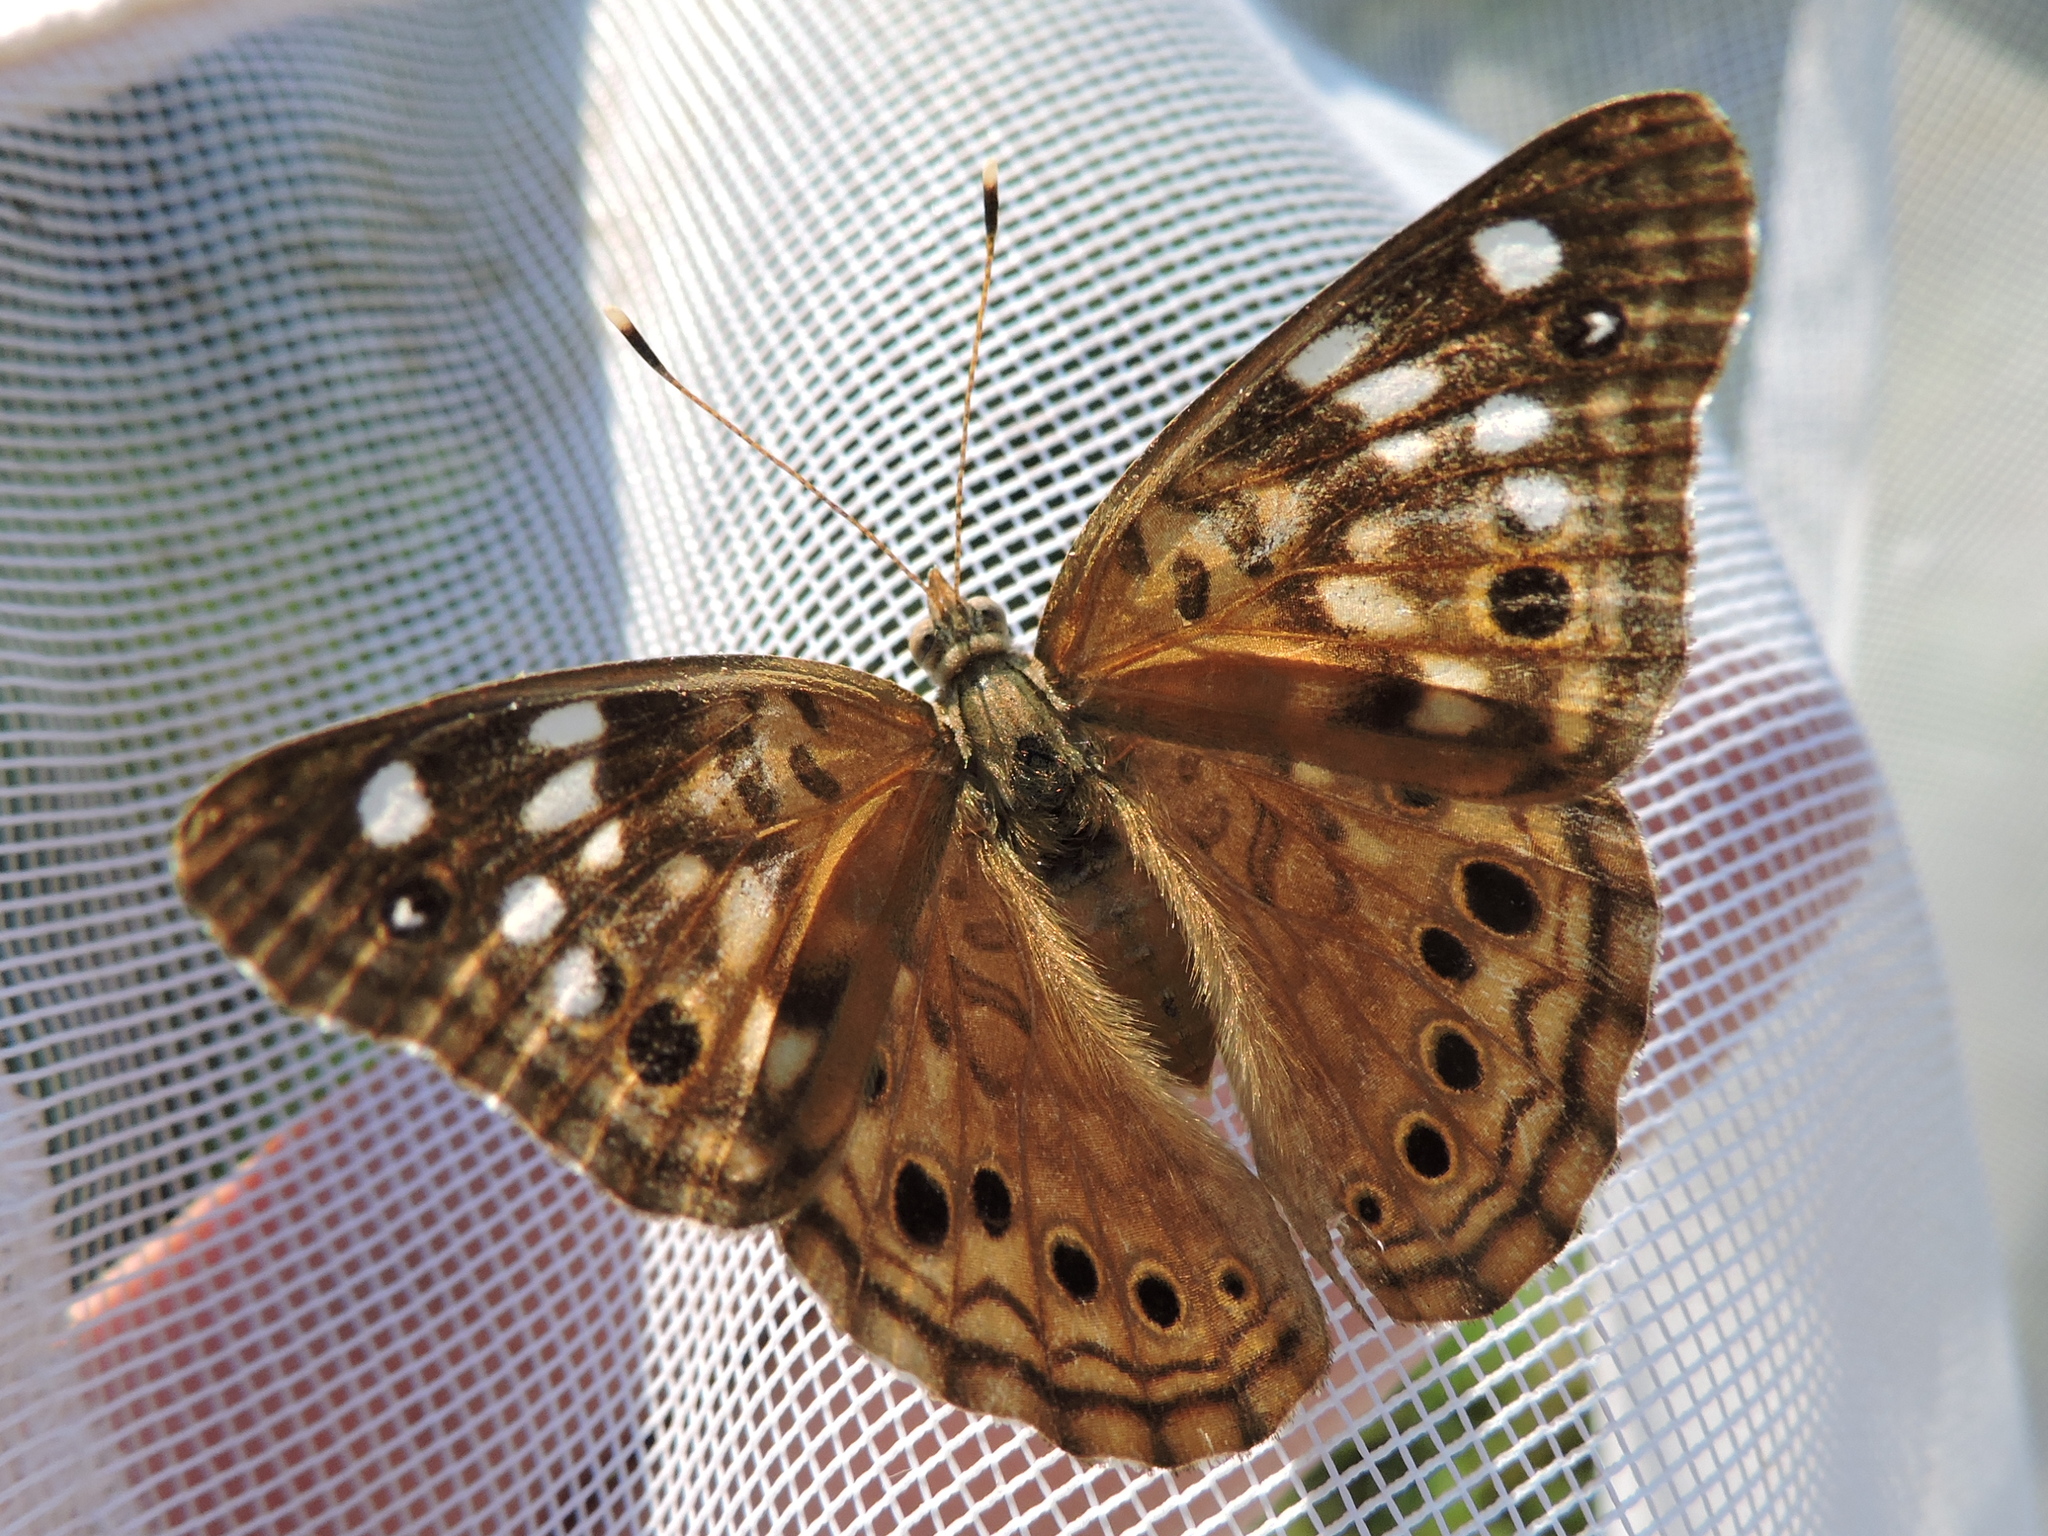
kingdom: Animalia
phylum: Arthropoda
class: Insecta
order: Lepidoptera
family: Nymphalidae
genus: Asterocampa
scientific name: Asterocampa celtis
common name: Hackberry emperor
